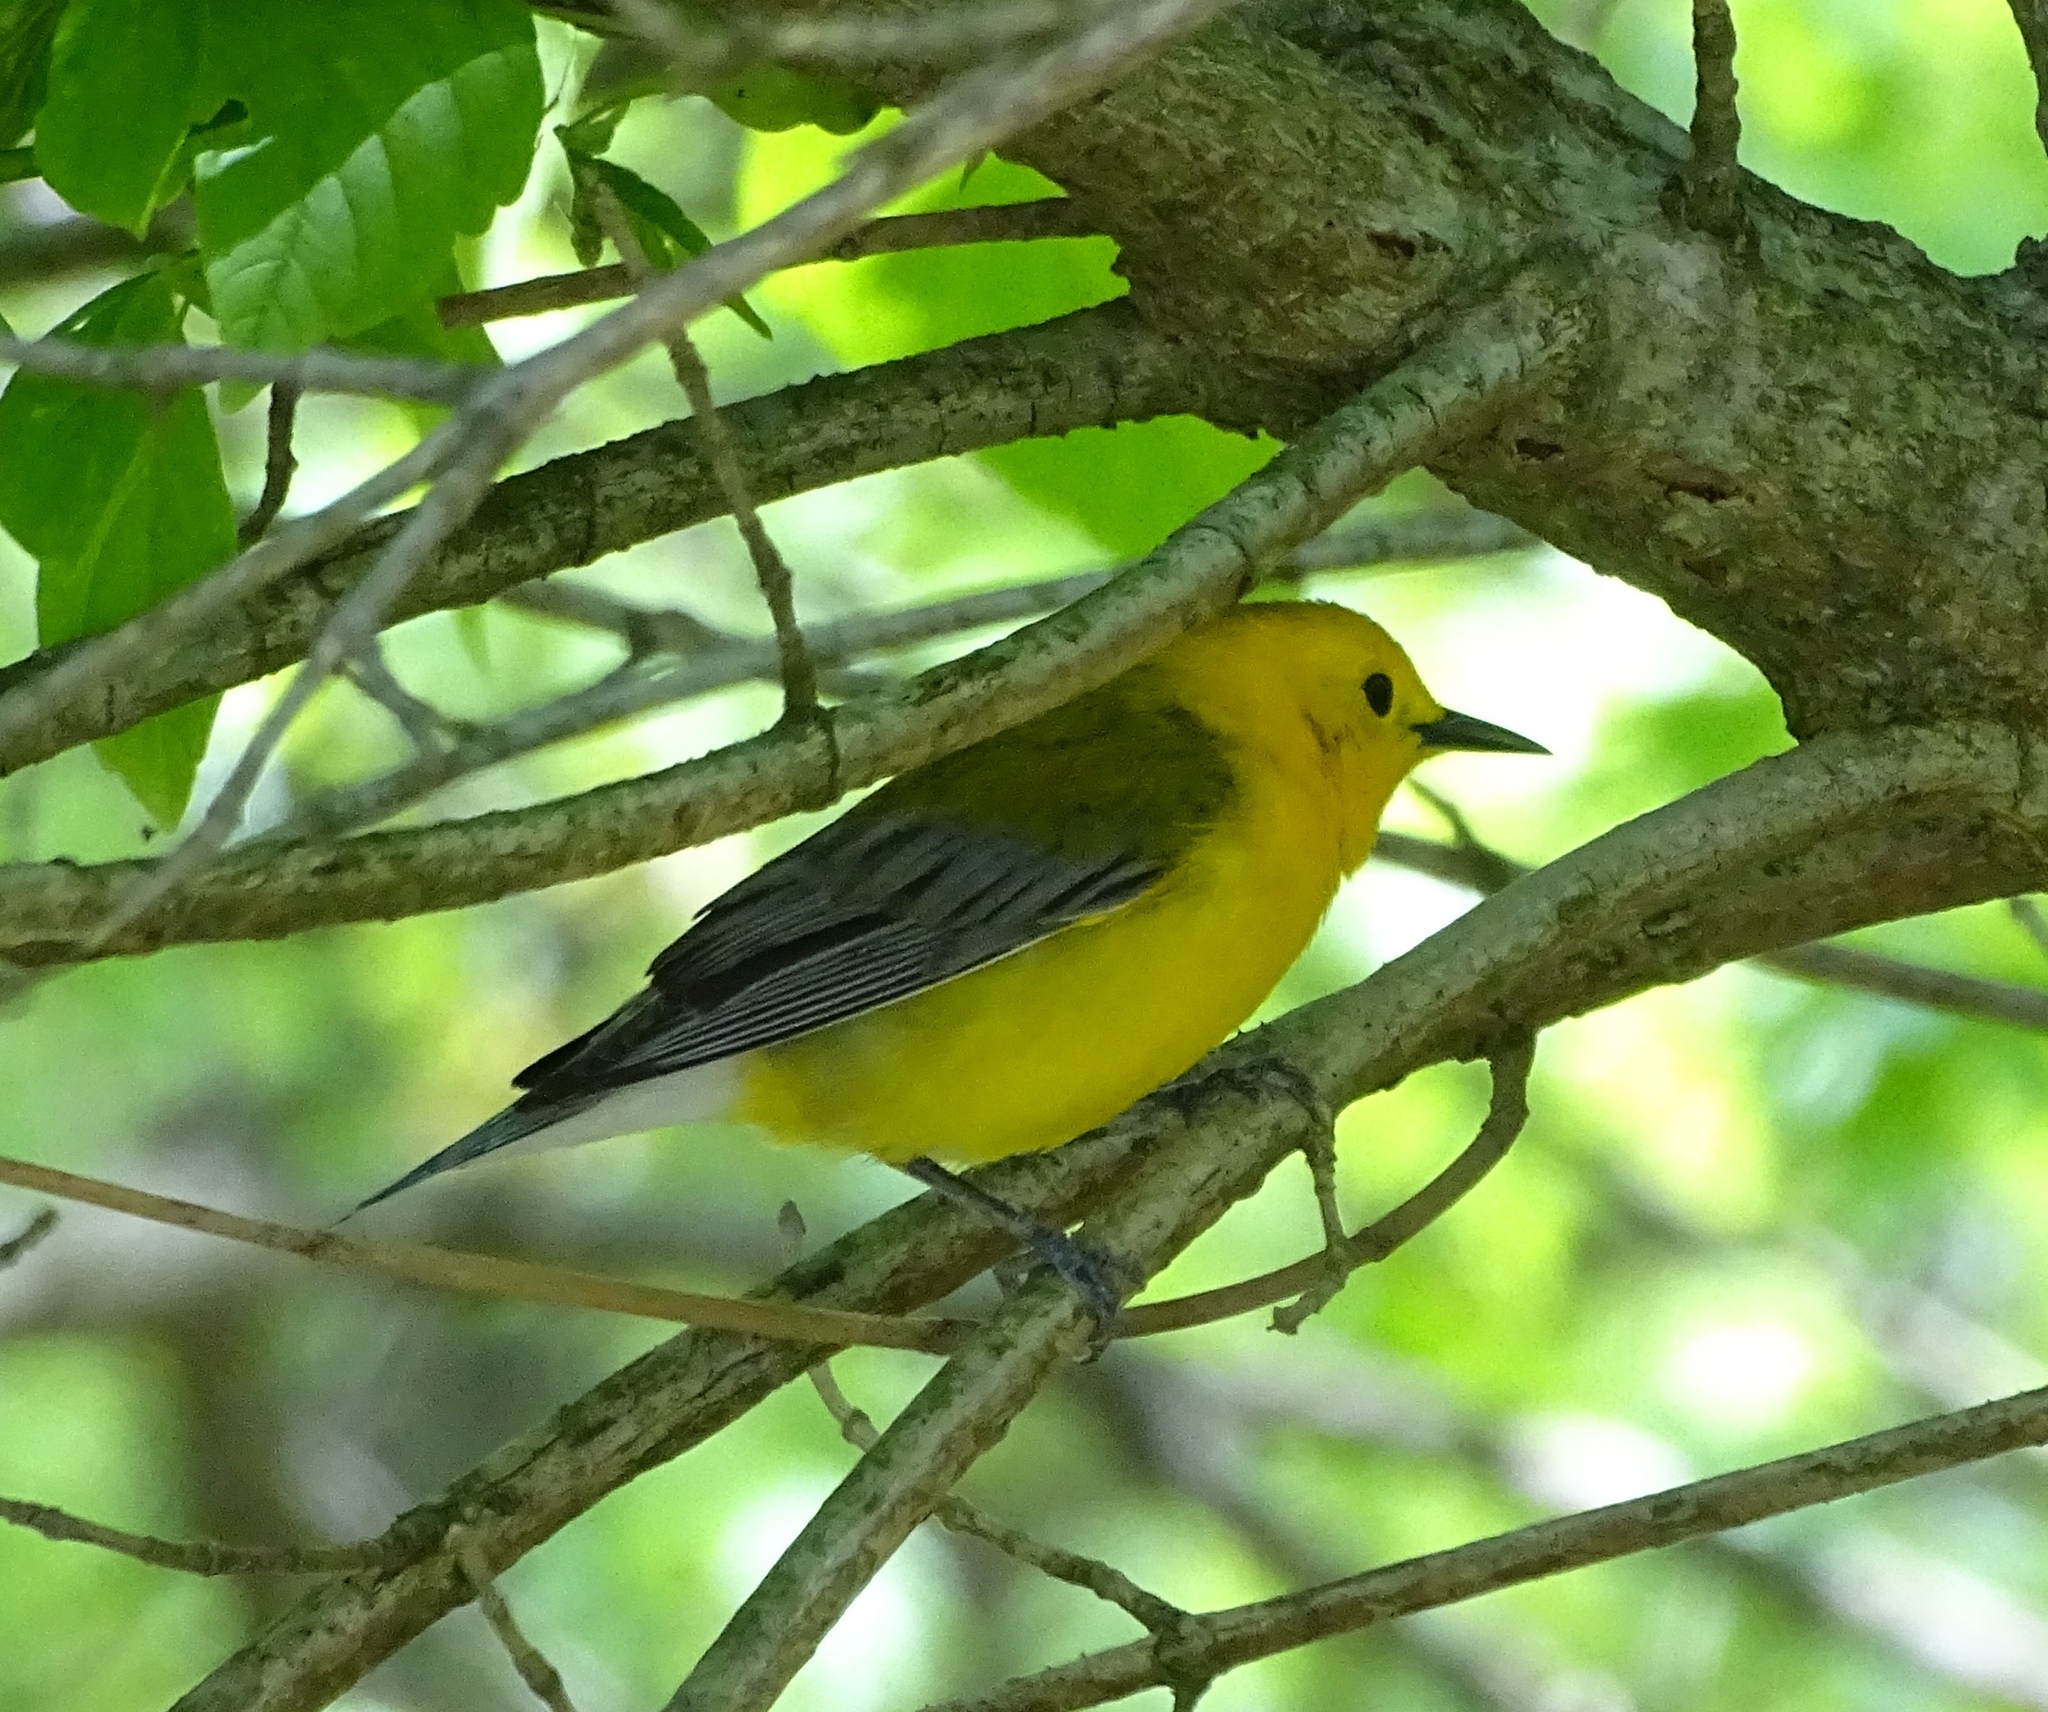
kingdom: Animalia
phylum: Chordata
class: Aves
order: Passeriformes
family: Parulidae
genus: Protonotaria
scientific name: Protonotaria citrea
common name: Prothonotary warbler
